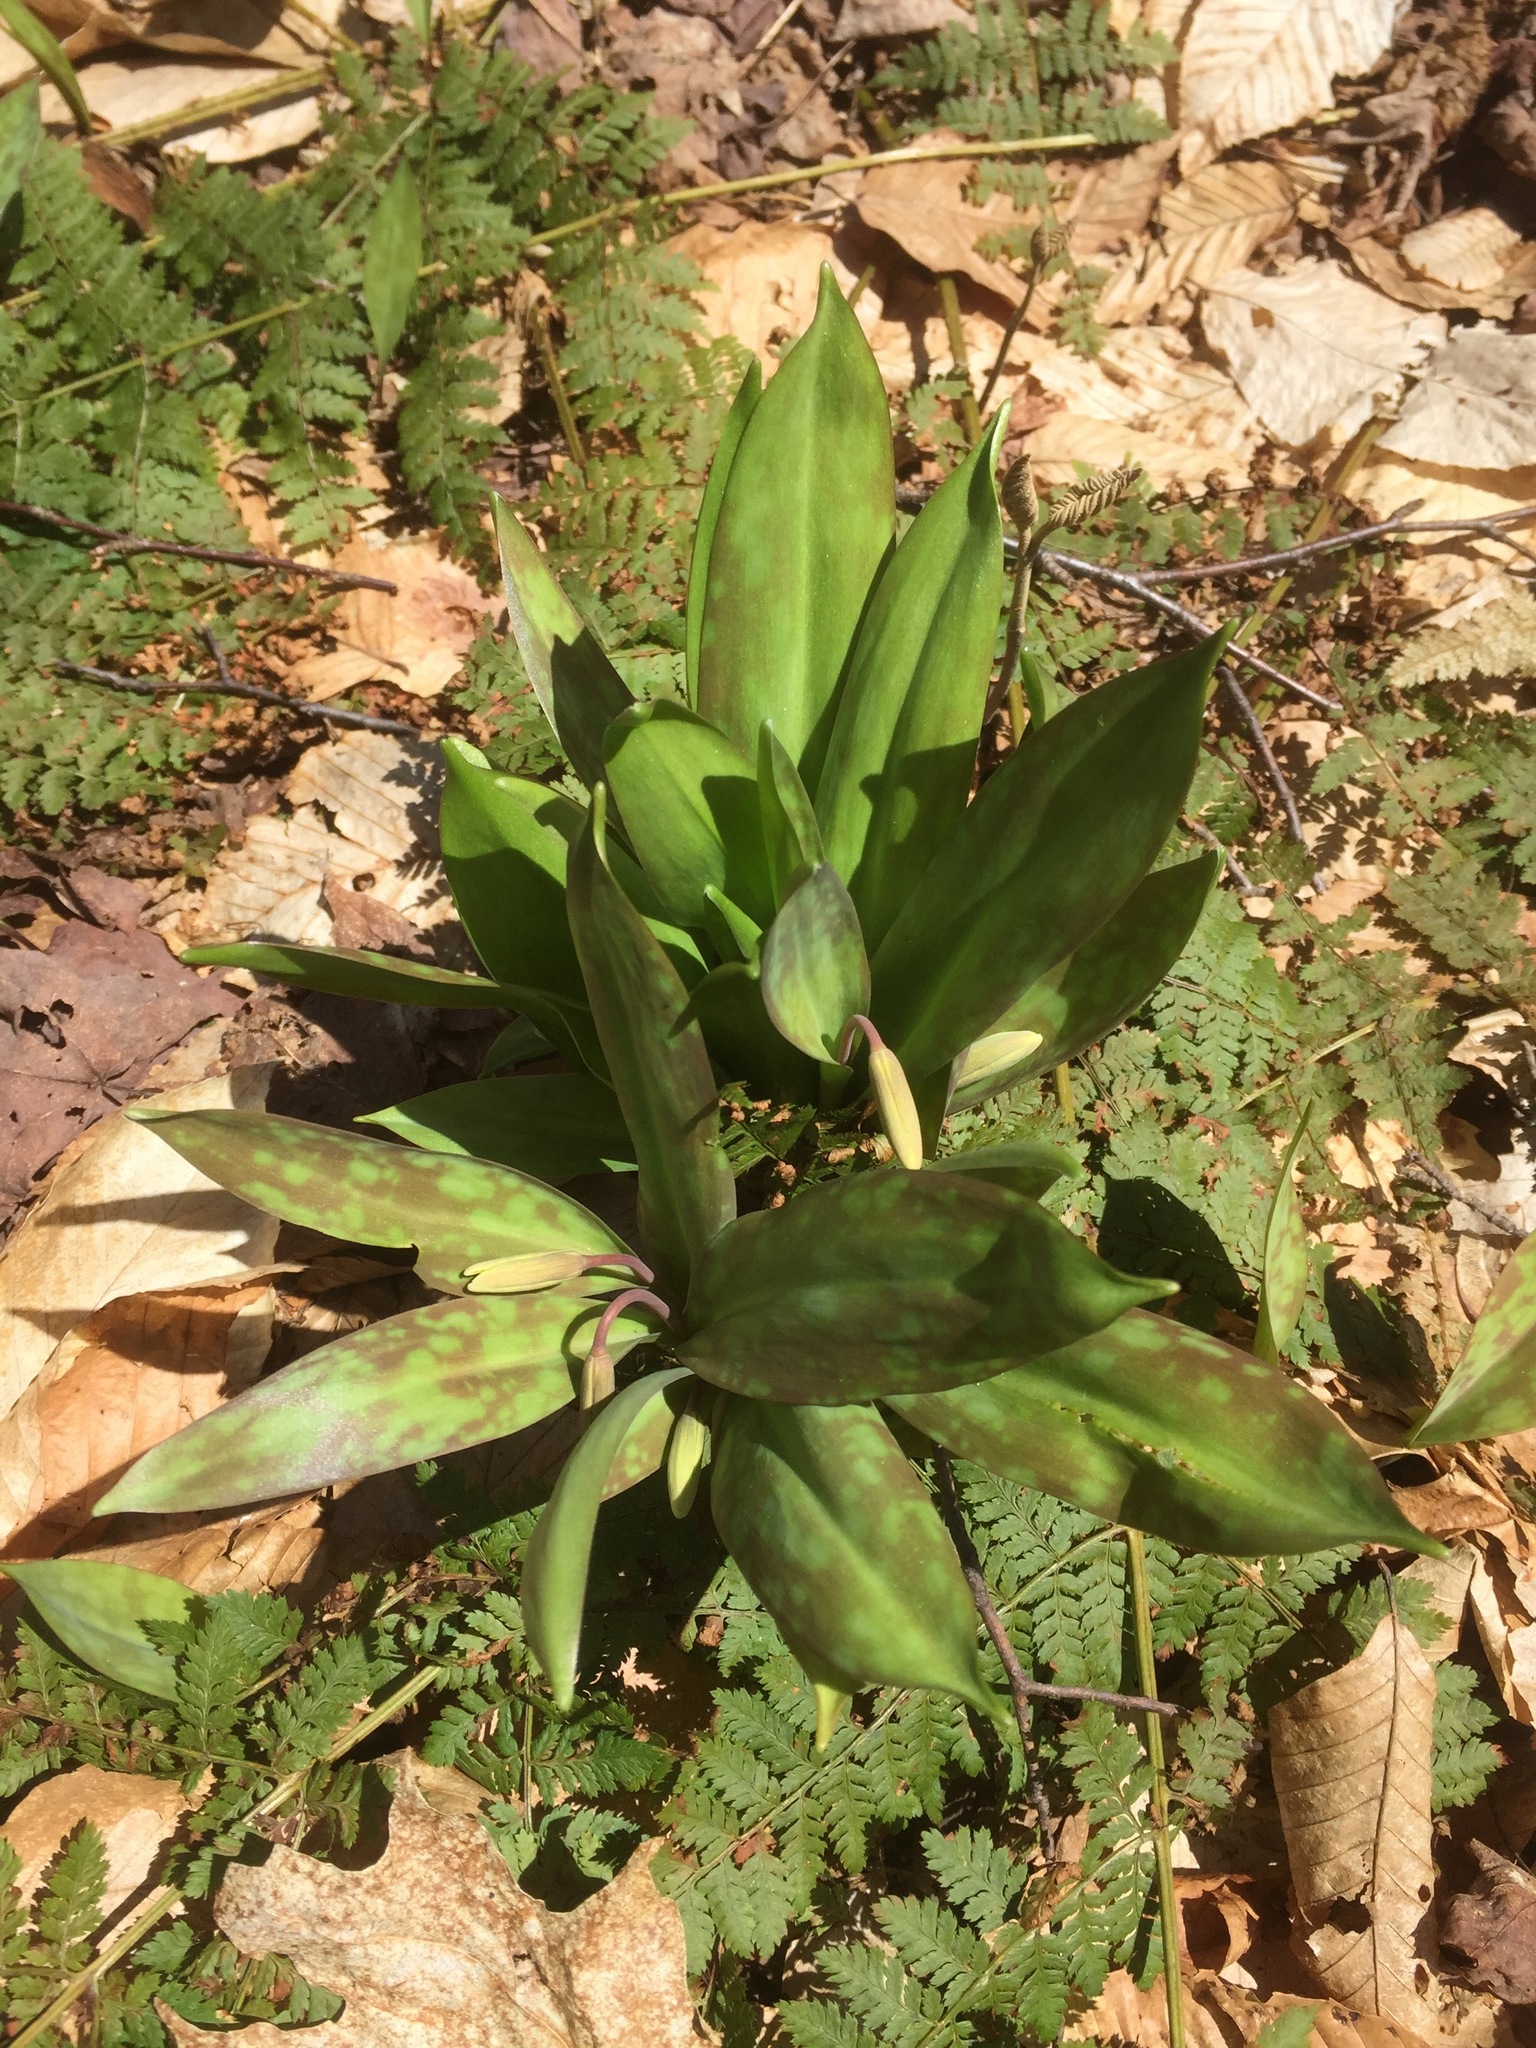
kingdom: Plantae
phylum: Tracheophyta
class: Liliopsida
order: Liliales
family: Liliaceae
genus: Erythronium
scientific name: Erythronium americanum
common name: Yellow adder's-tongue
